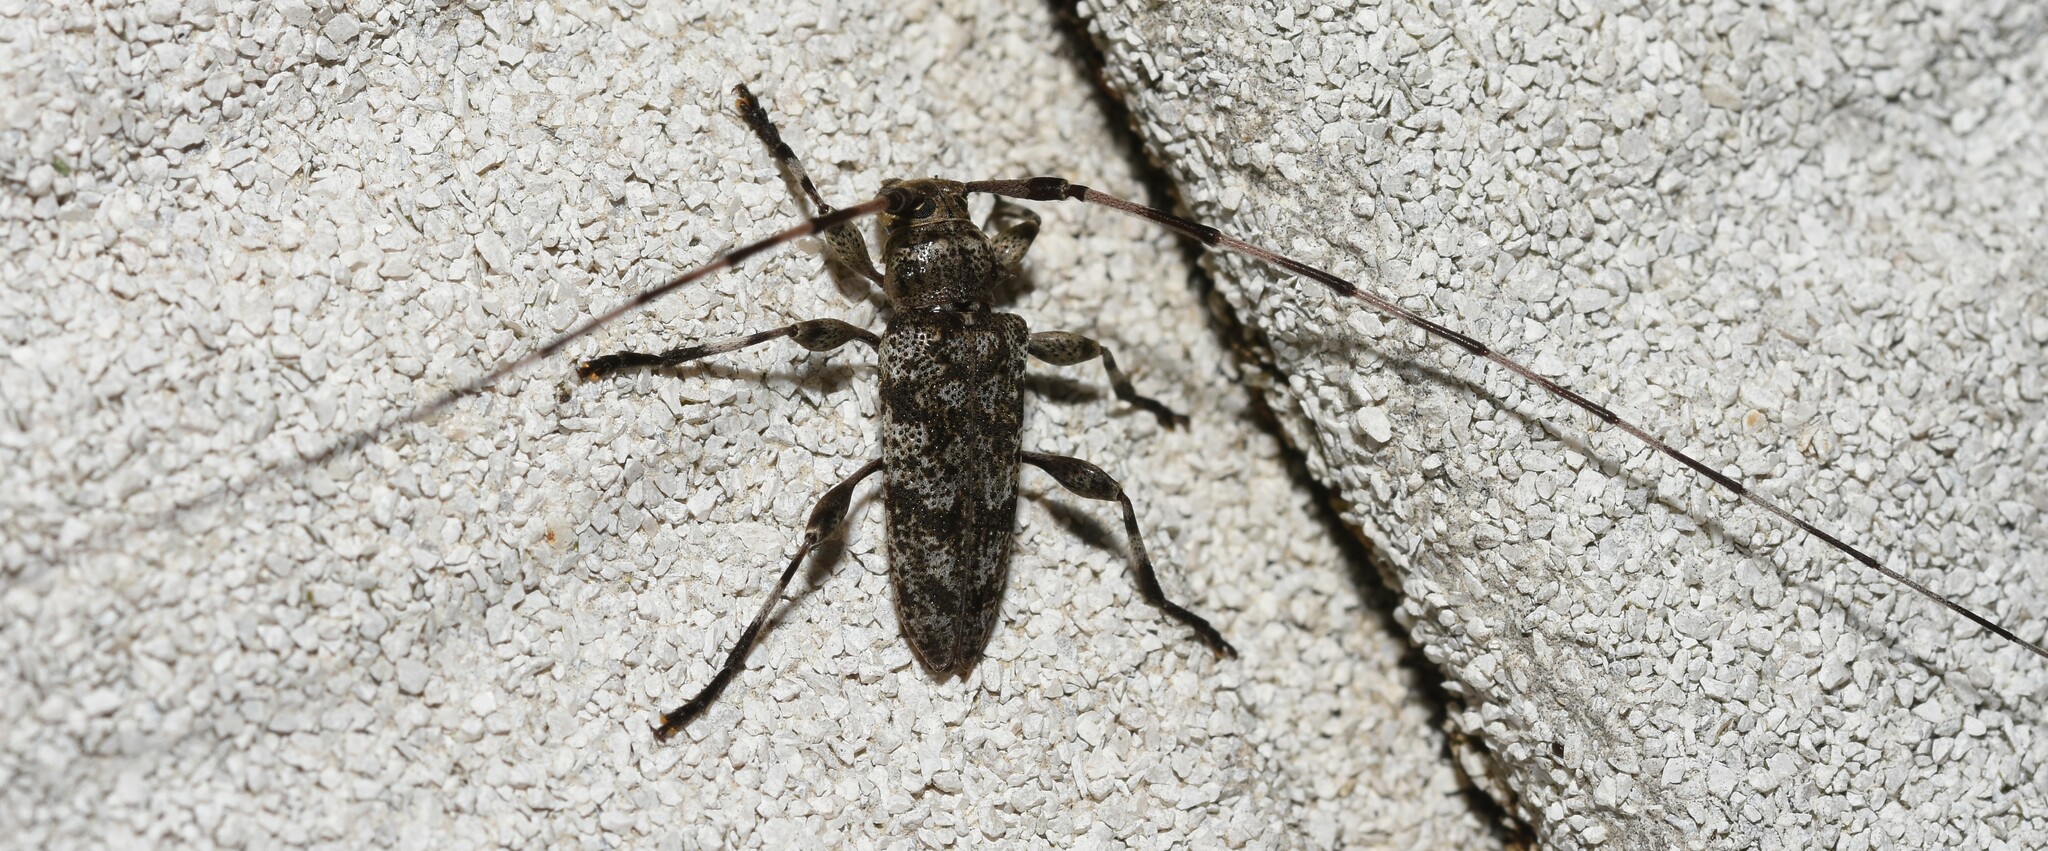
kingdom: Animalia
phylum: Arthropoda
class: Insecta
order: Coleoptera
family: Cerambycidae
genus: Acanthocinus
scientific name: Acanthocinus obsoletus
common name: Roundheaded borer
